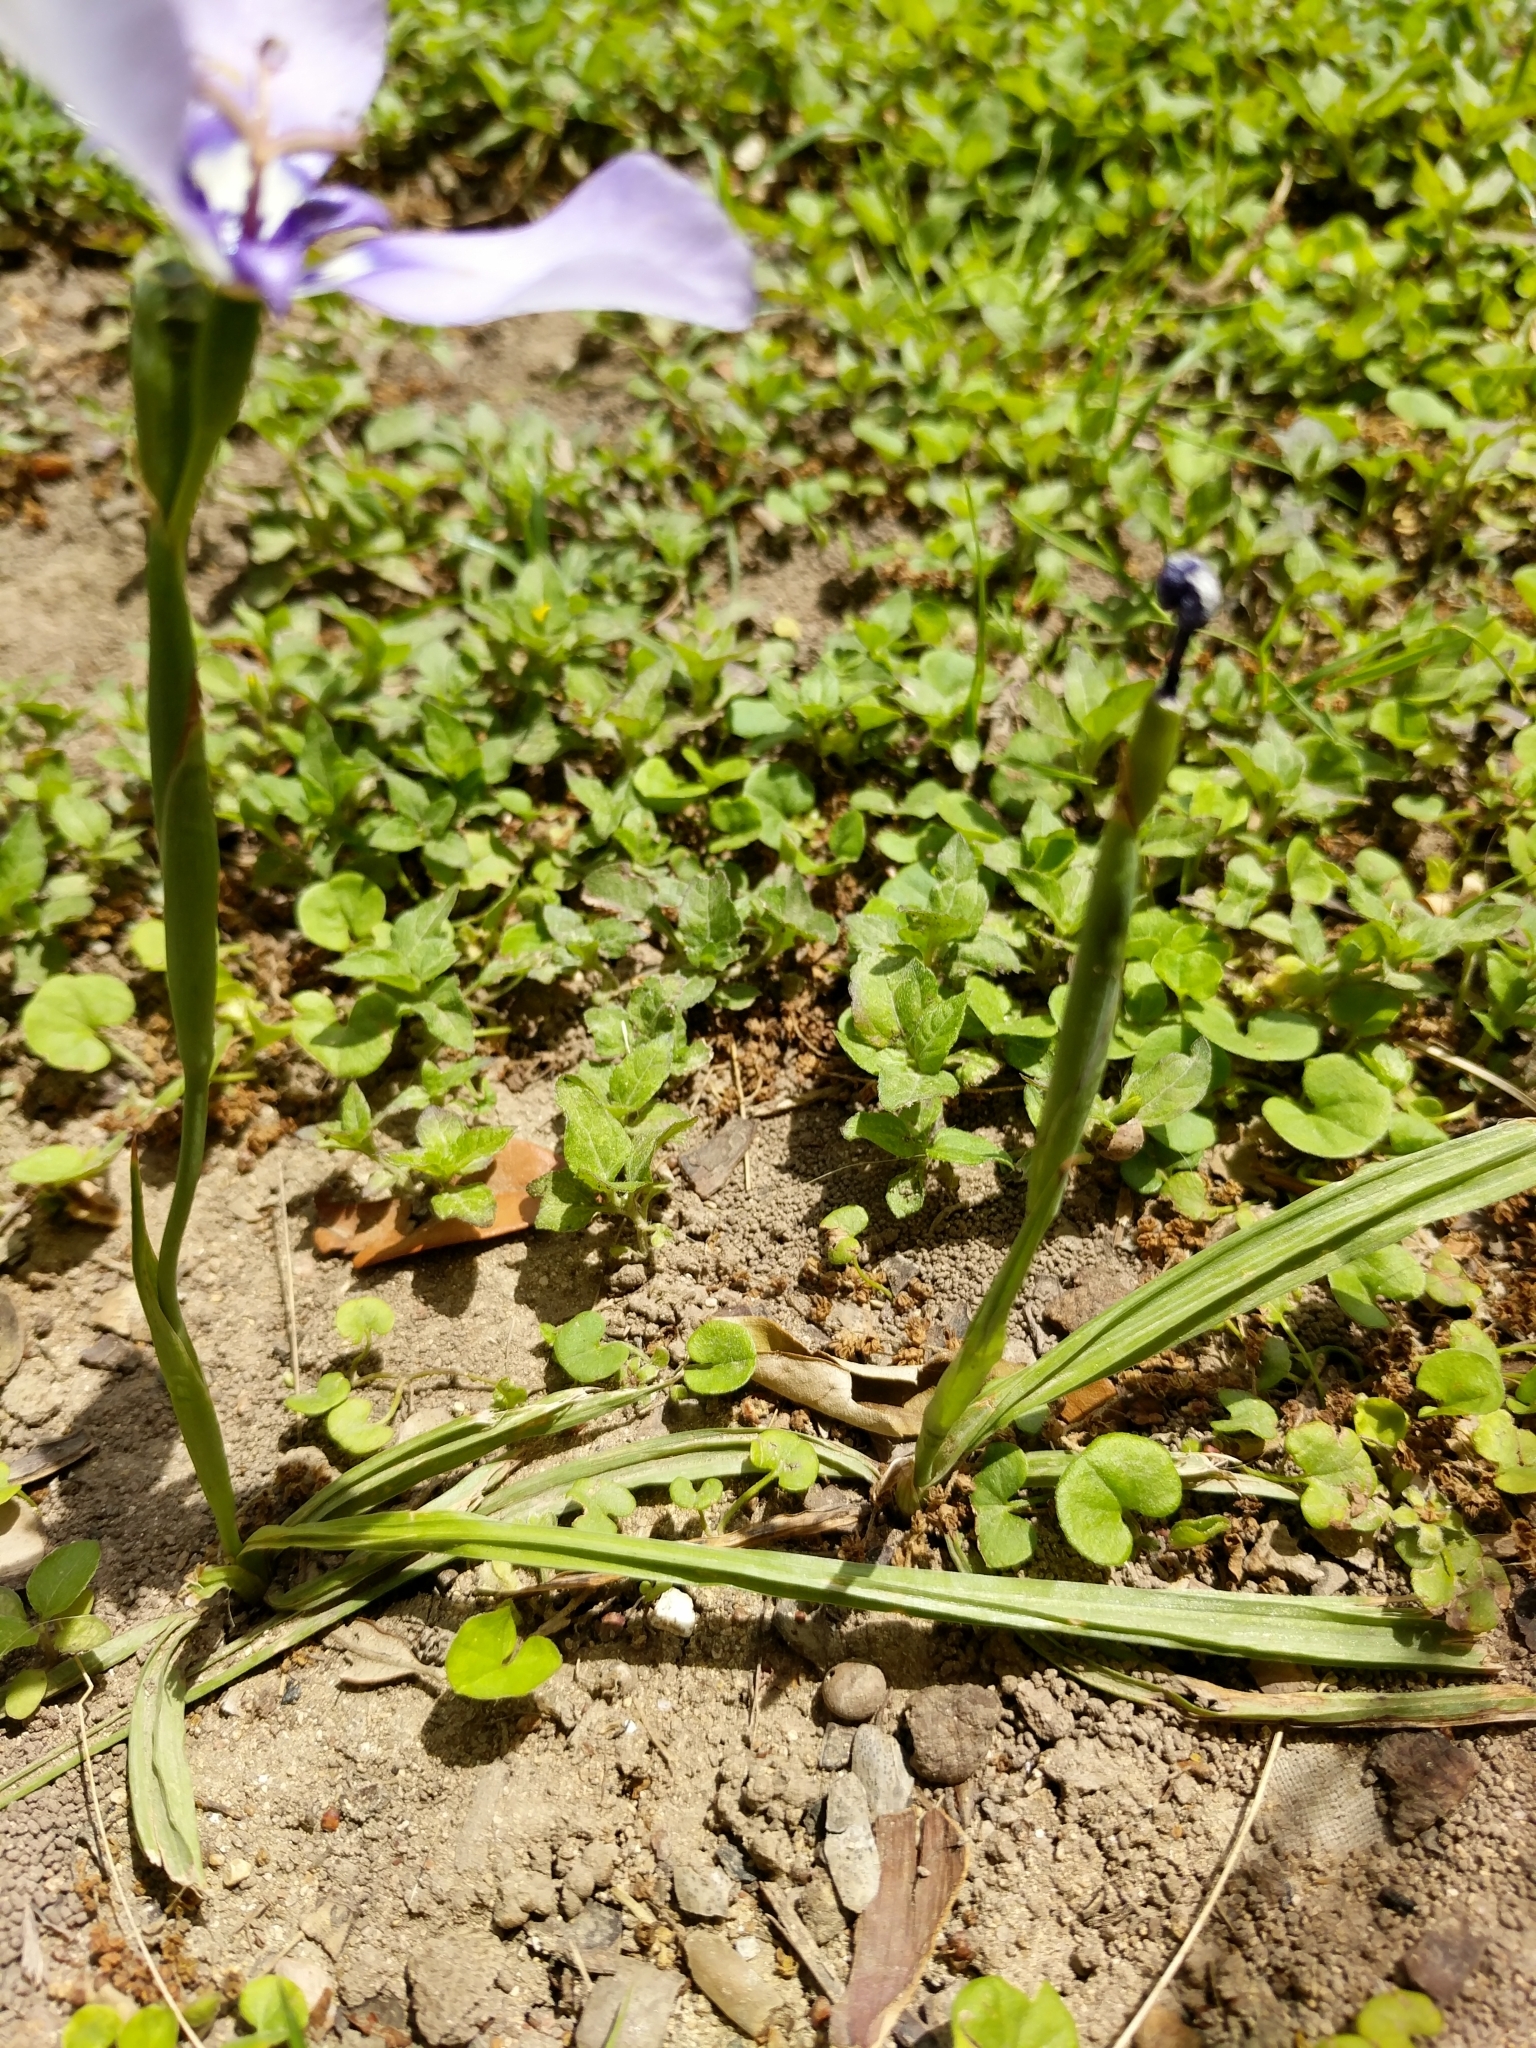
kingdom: Plantae
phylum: Tracheophyta
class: Liliopsida
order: Asparagales
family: Iridaceae
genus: Herbertia
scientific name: Herbertia lahue
